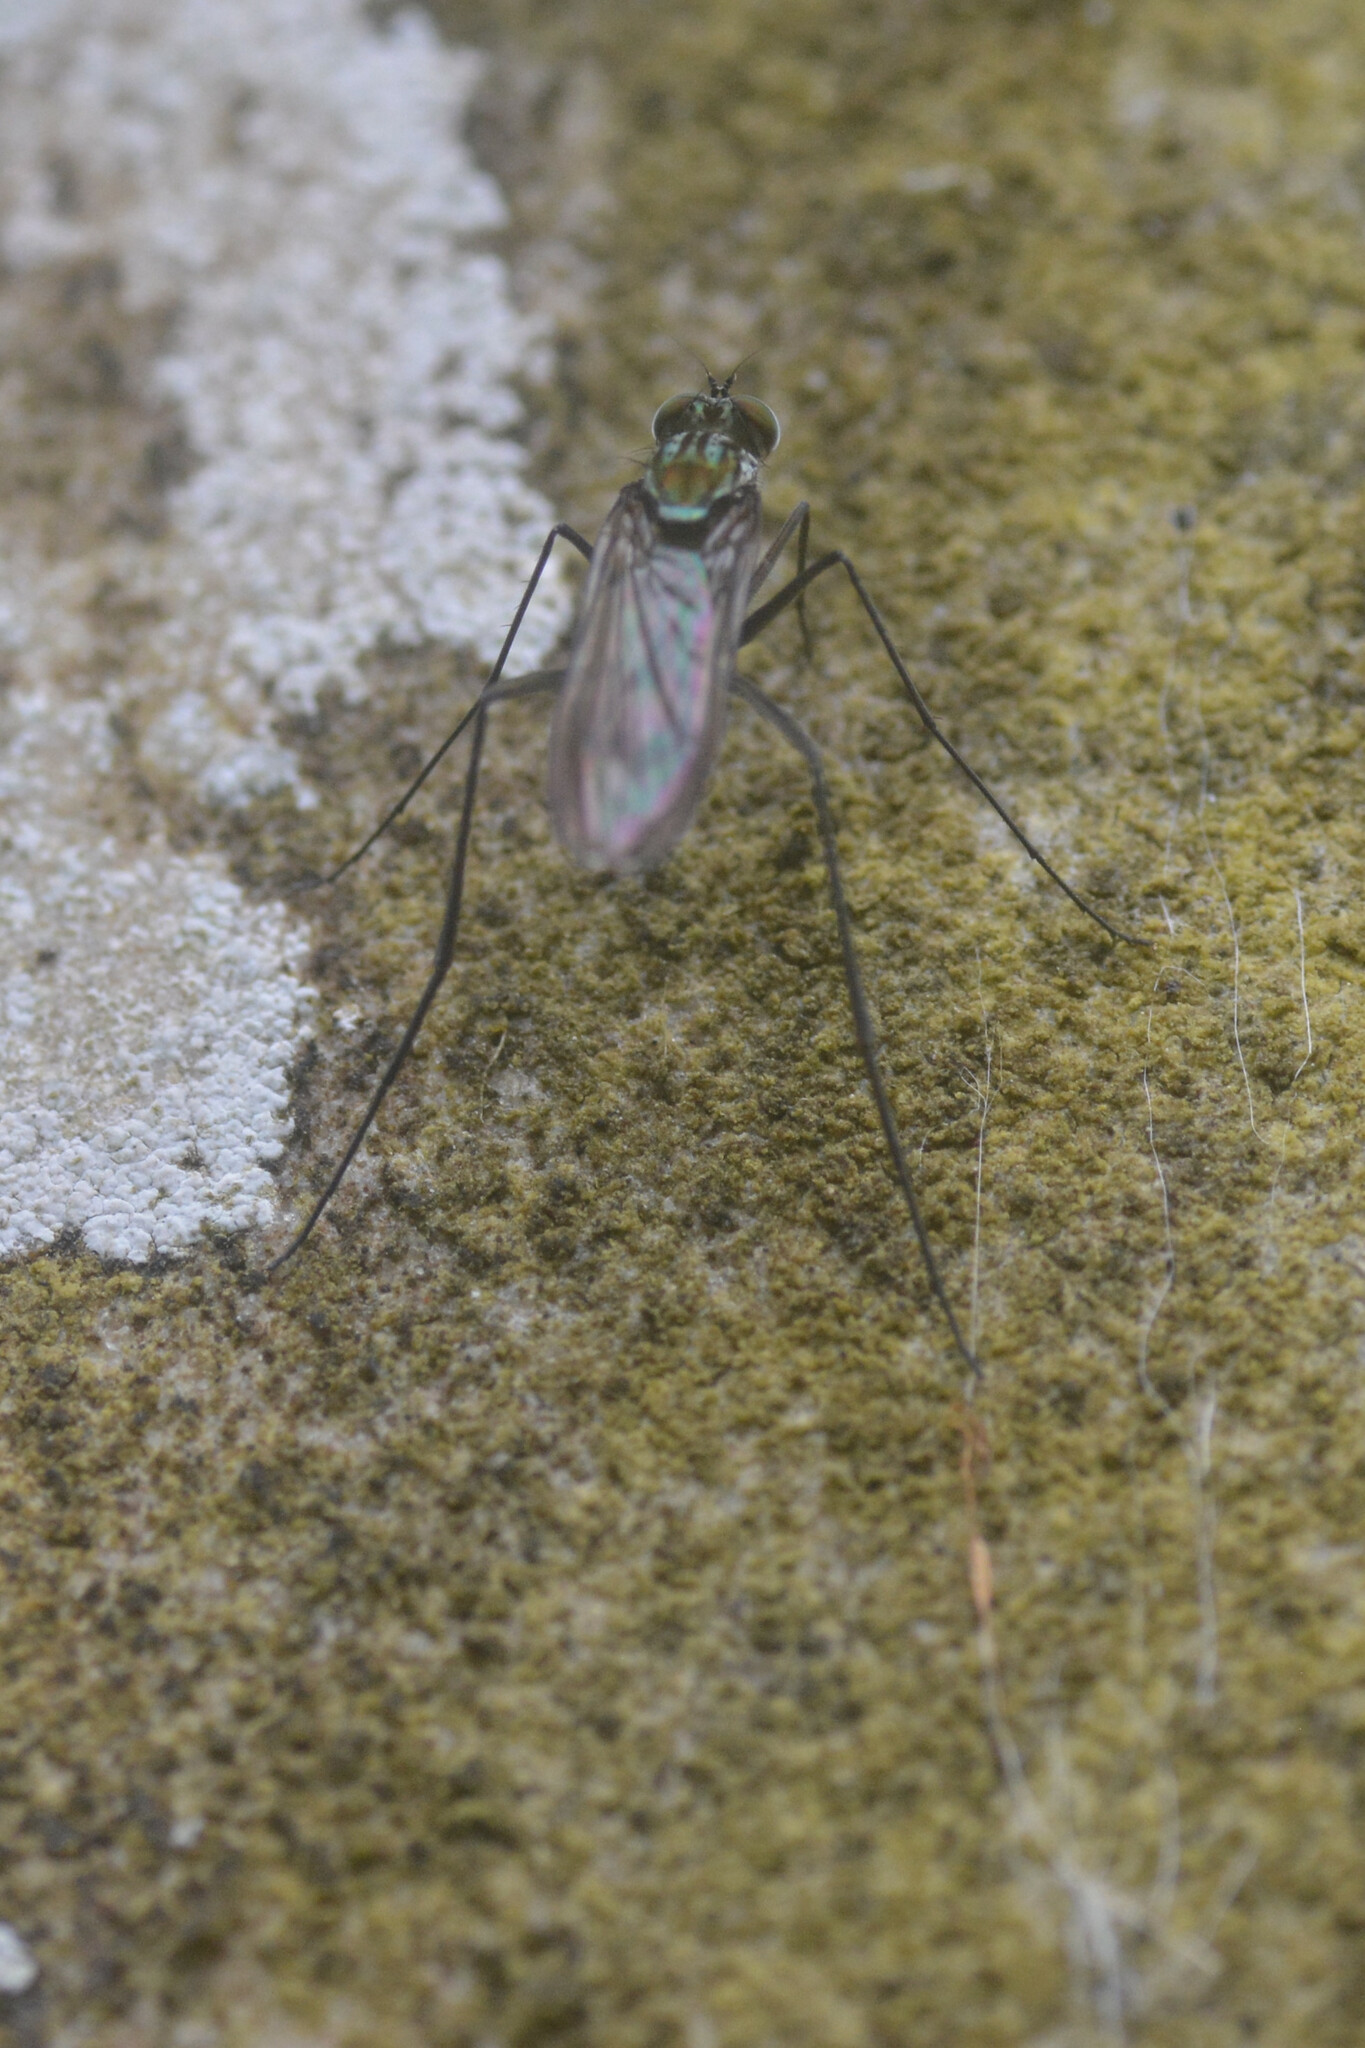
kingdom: Animalia
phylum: Arthropoda
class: Insecta
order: Diptera
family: Dolichopodidae
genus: Liancalus
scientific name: Liancalus virens
